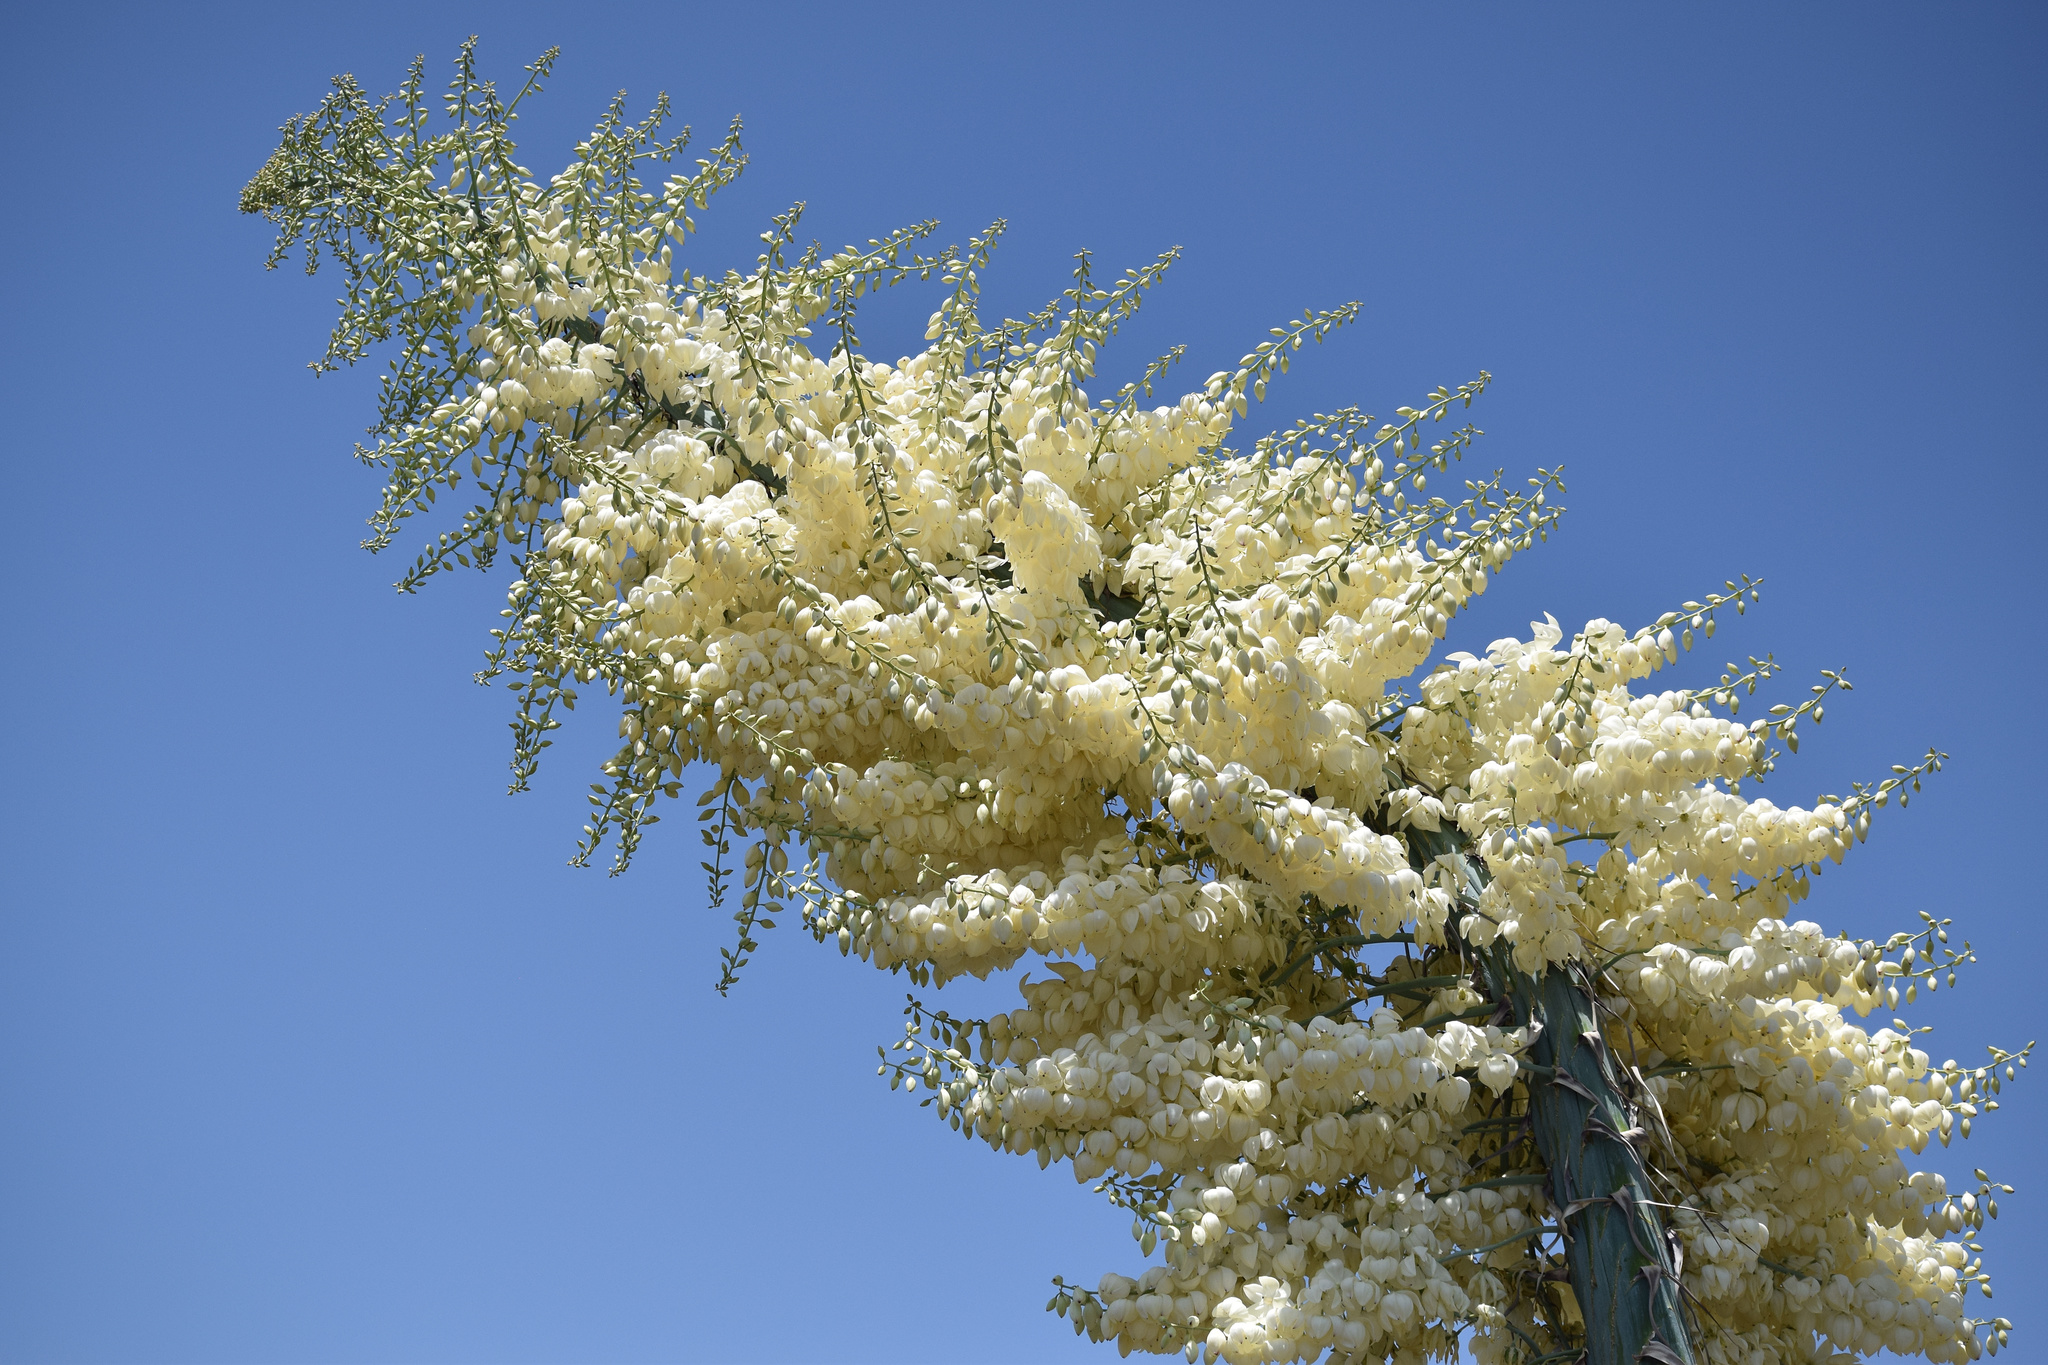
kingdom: Plantae
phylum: Tracheophyta
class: Liliopsida
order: Asparagales
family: Asparagaceae
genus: Hesperoyucca
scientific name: Hesperoyucca whipplei
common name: Our lord's-candle
